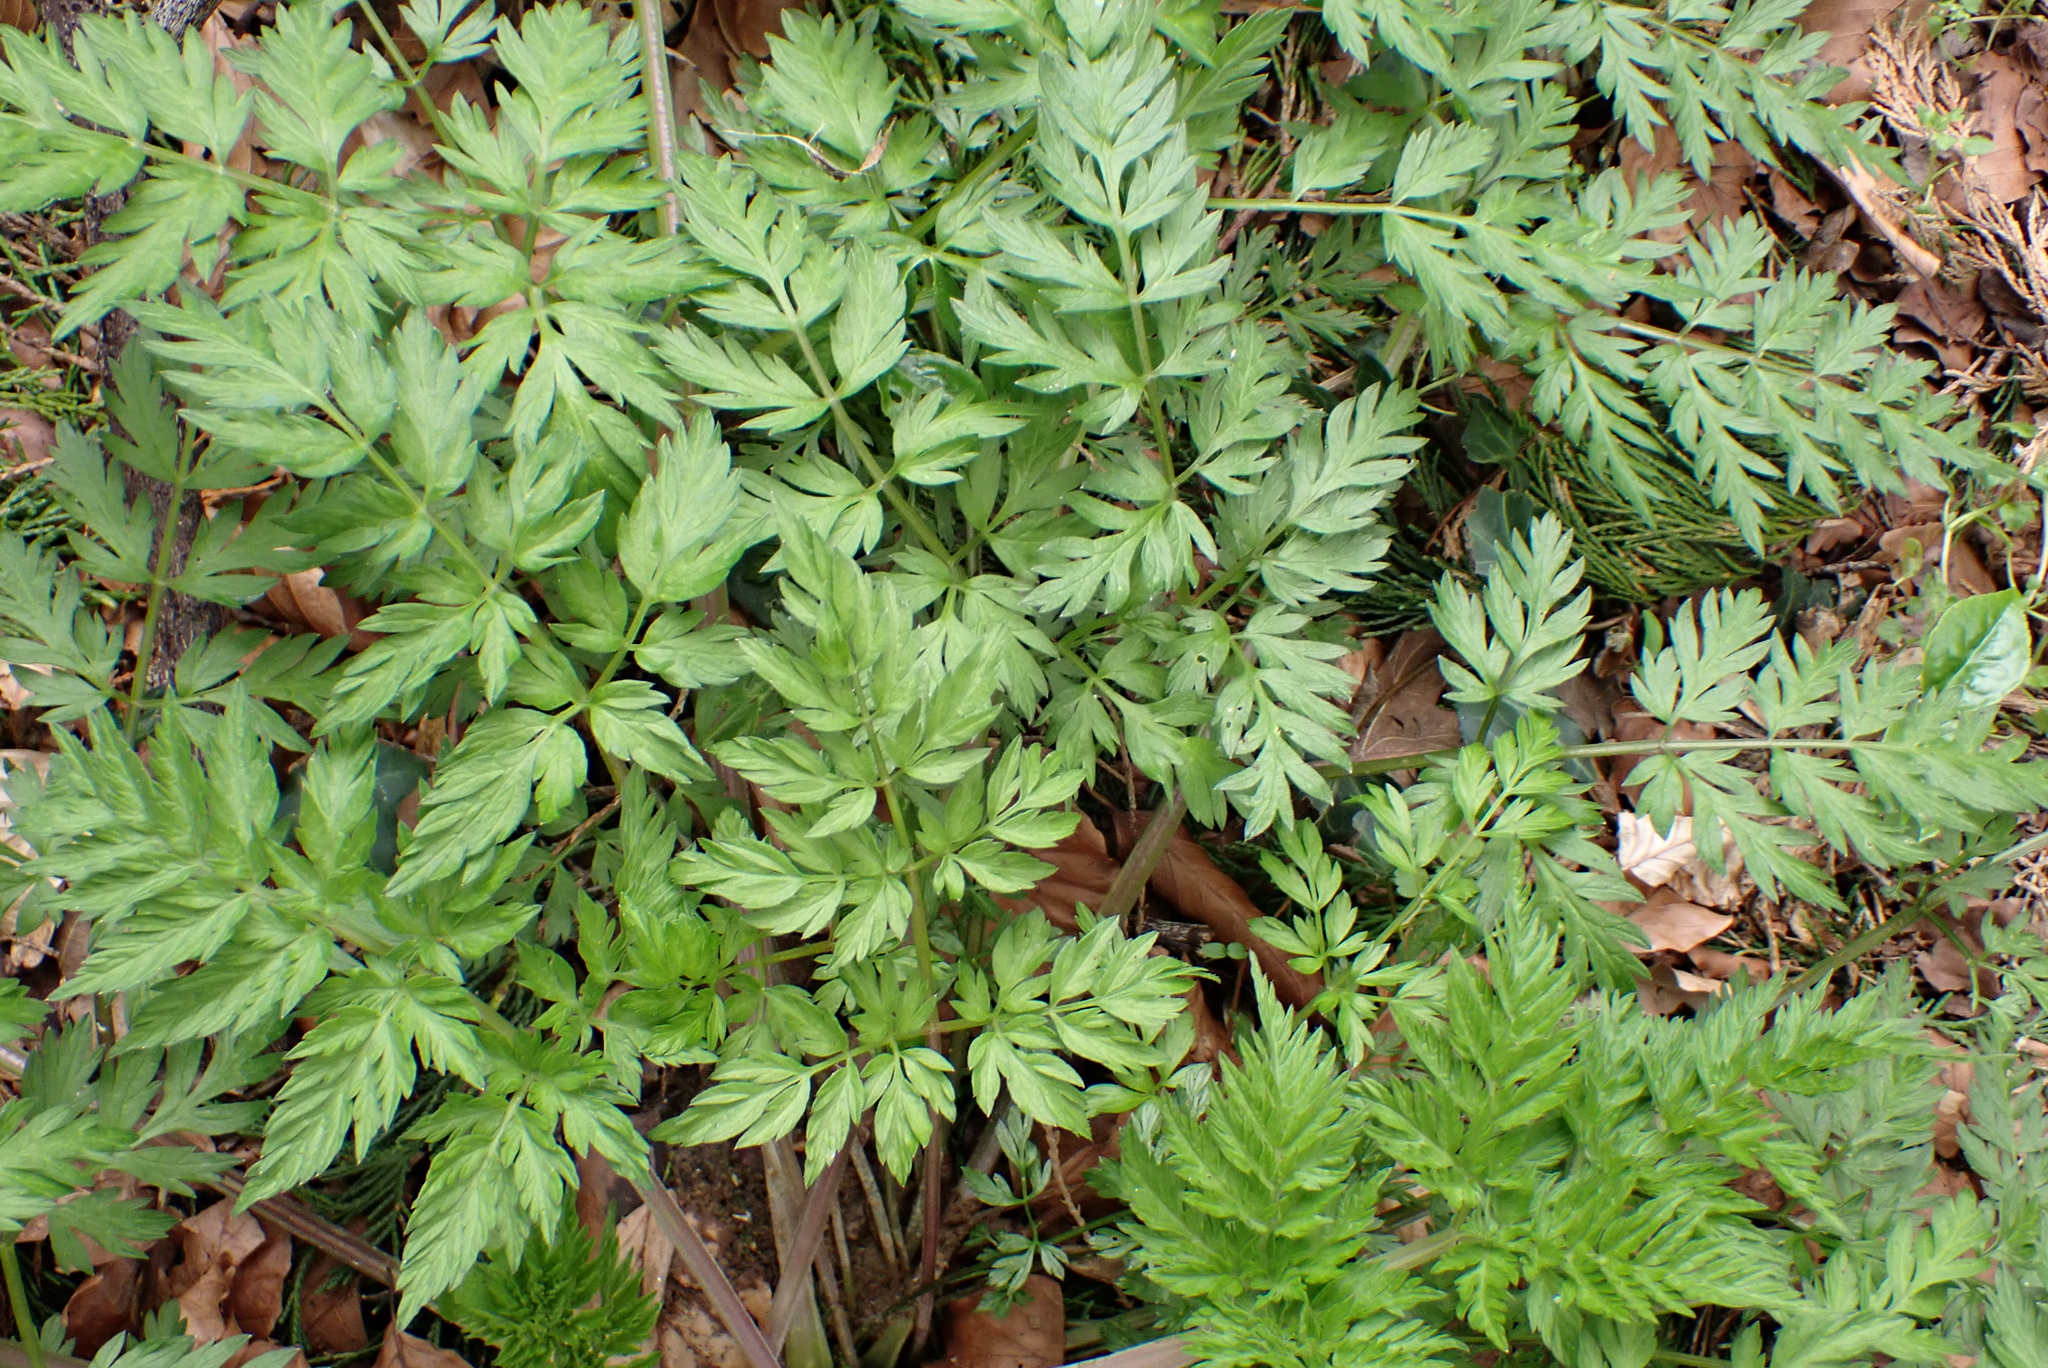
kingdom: Plantae
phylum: Tracheophyta
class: Magnoliopsida
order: Apiales
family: Apiaceae
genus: Anthriscus
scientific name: Anthriscus sylvestris
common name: Cow parsley
